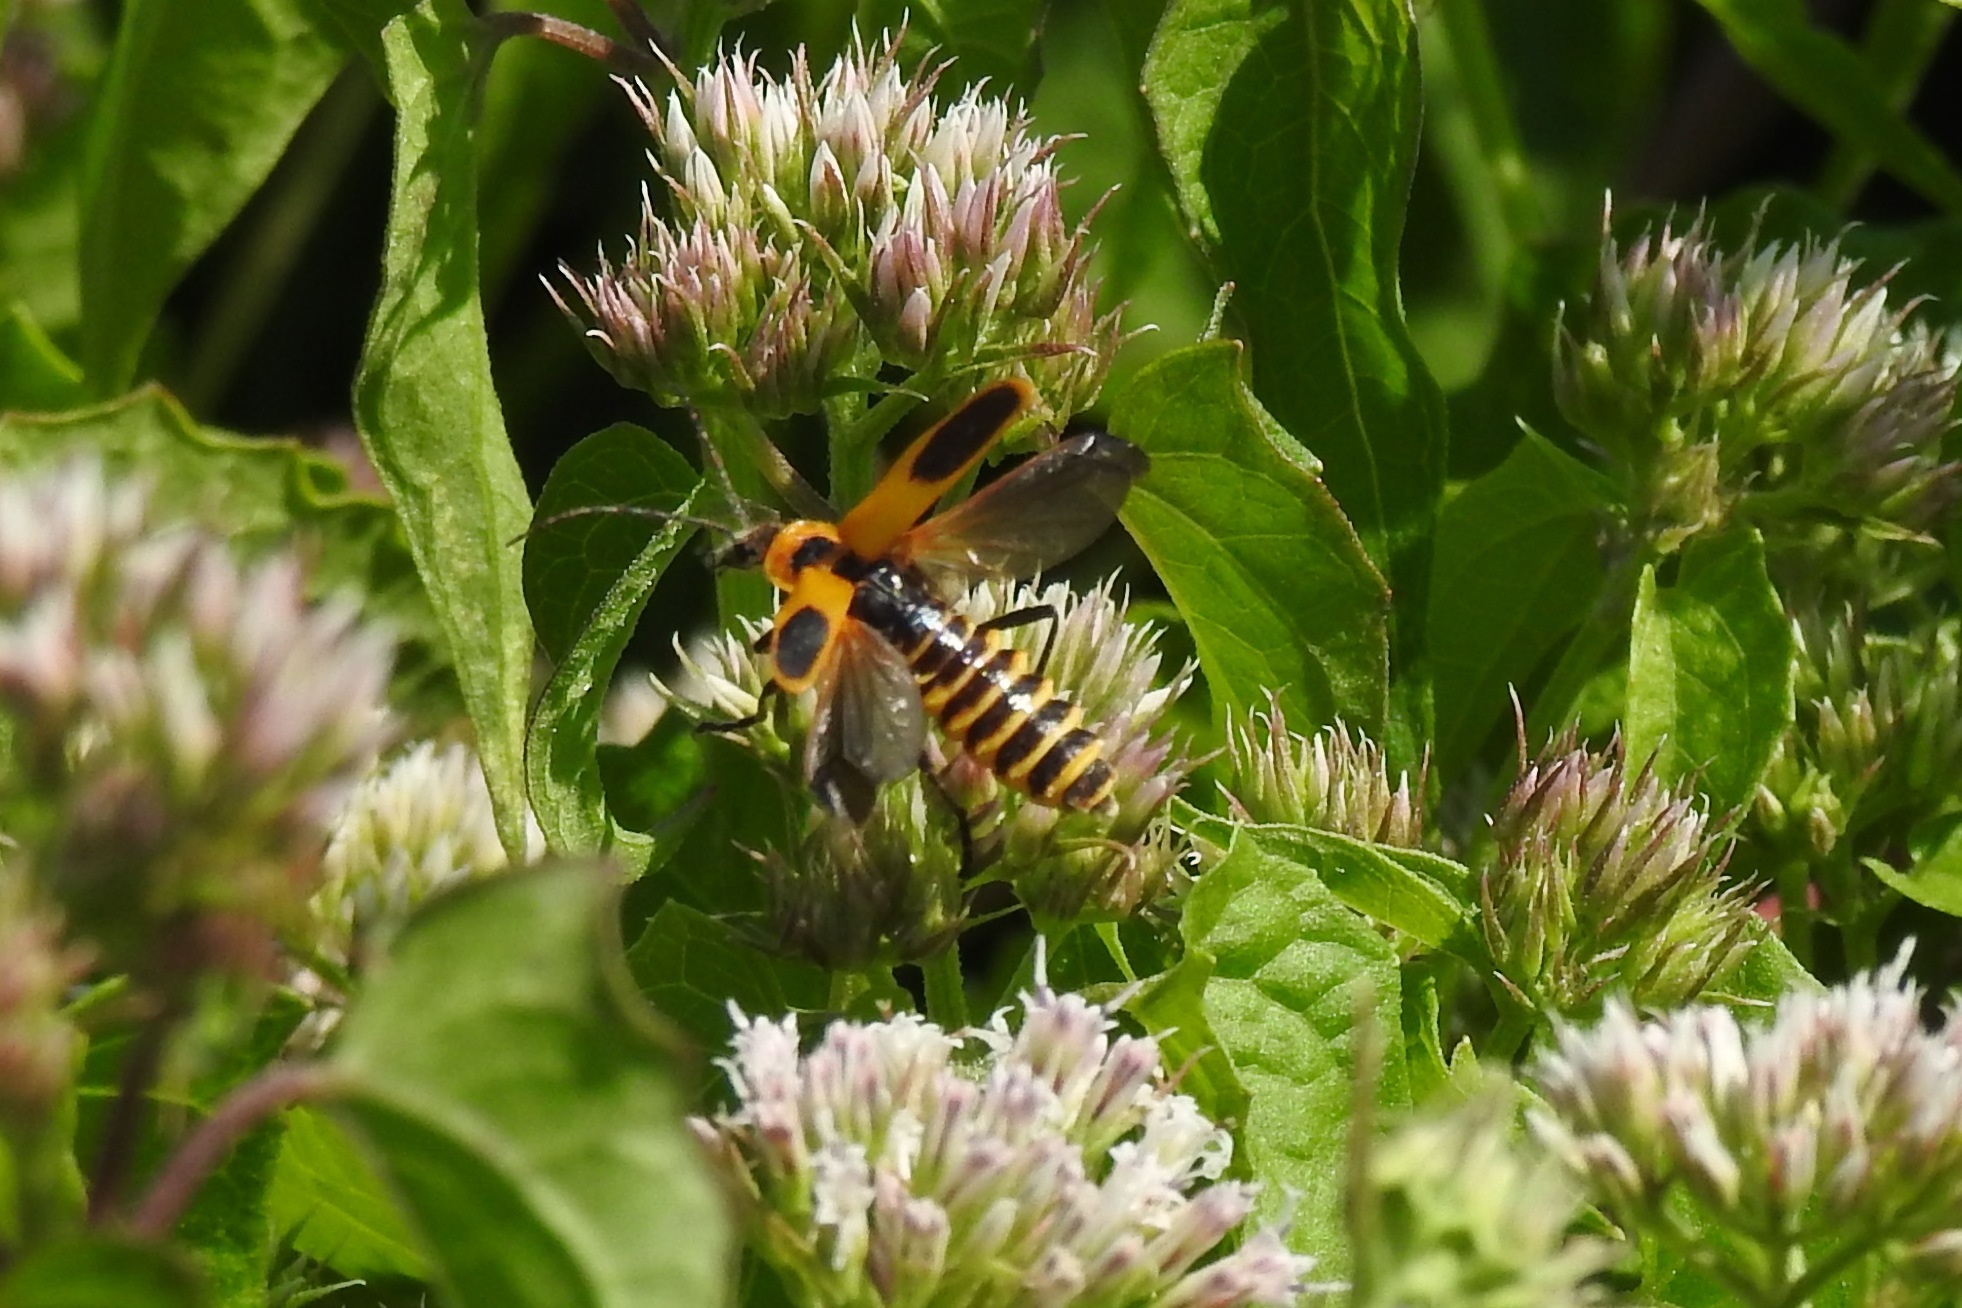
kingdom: Animalia
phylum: Arthropoda
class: Insecta
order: Coleoptera
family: Cantharidae
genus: Chauliognathus
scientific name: Chauliognathus pensylvanicus
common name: Goldenrod soldier beetle
